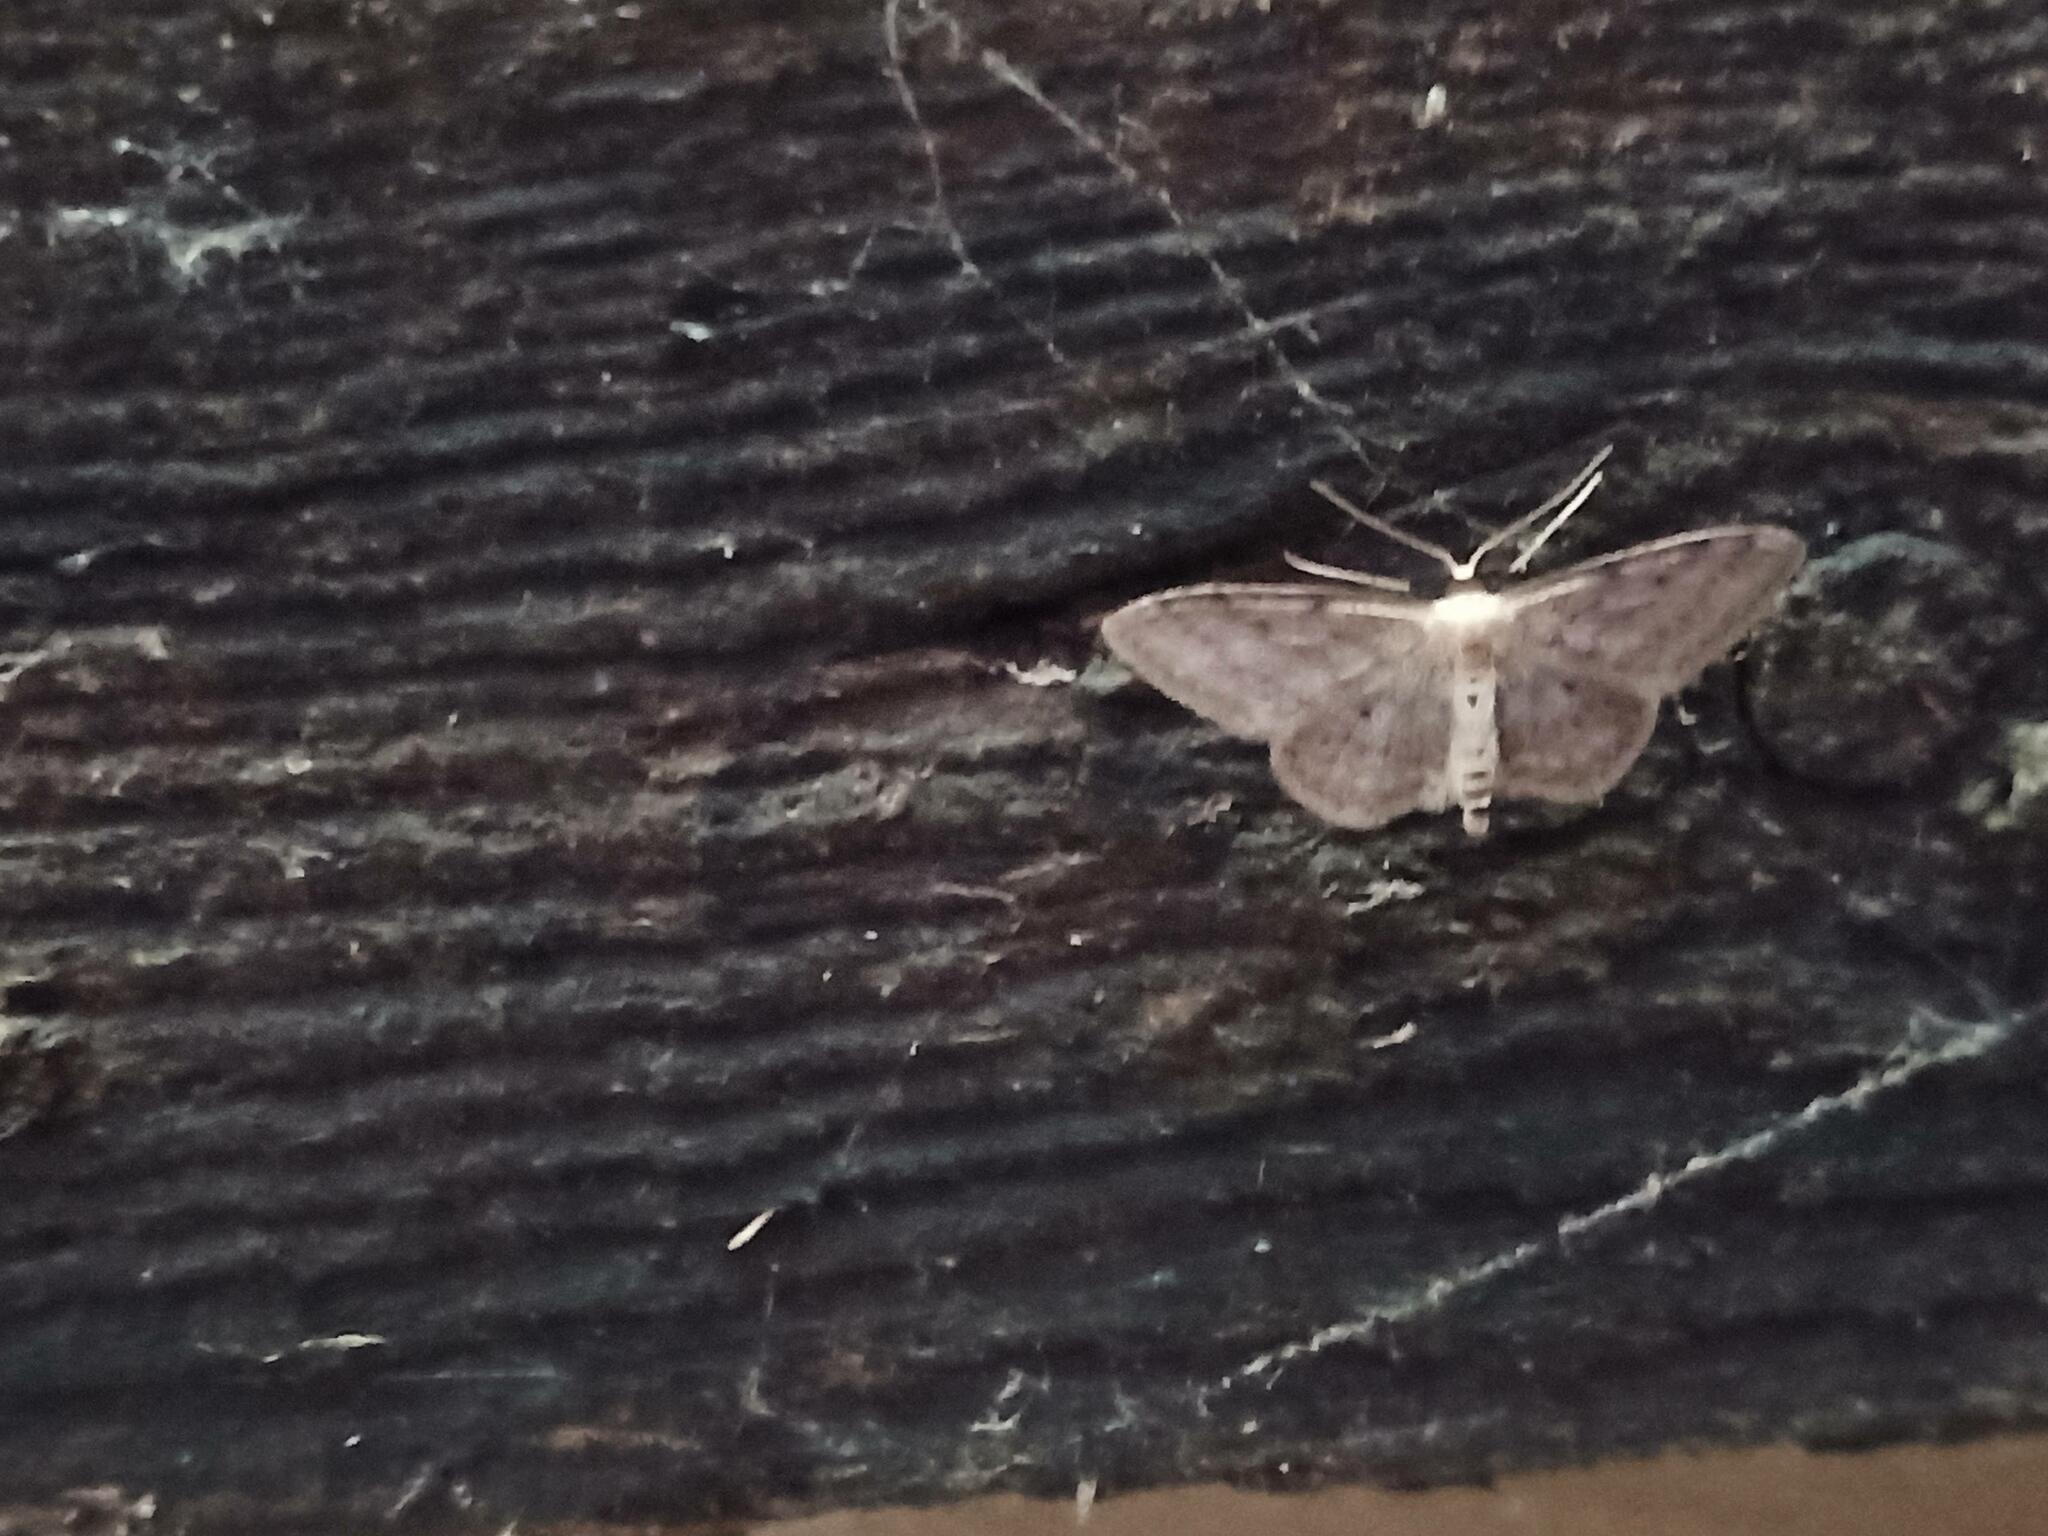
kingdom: Animalia
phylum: Arthropoda
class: Insecta
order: Lepidoptera
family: Geometridae
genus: Idaea
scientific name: Idaea seriata
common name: Small dusty wave
